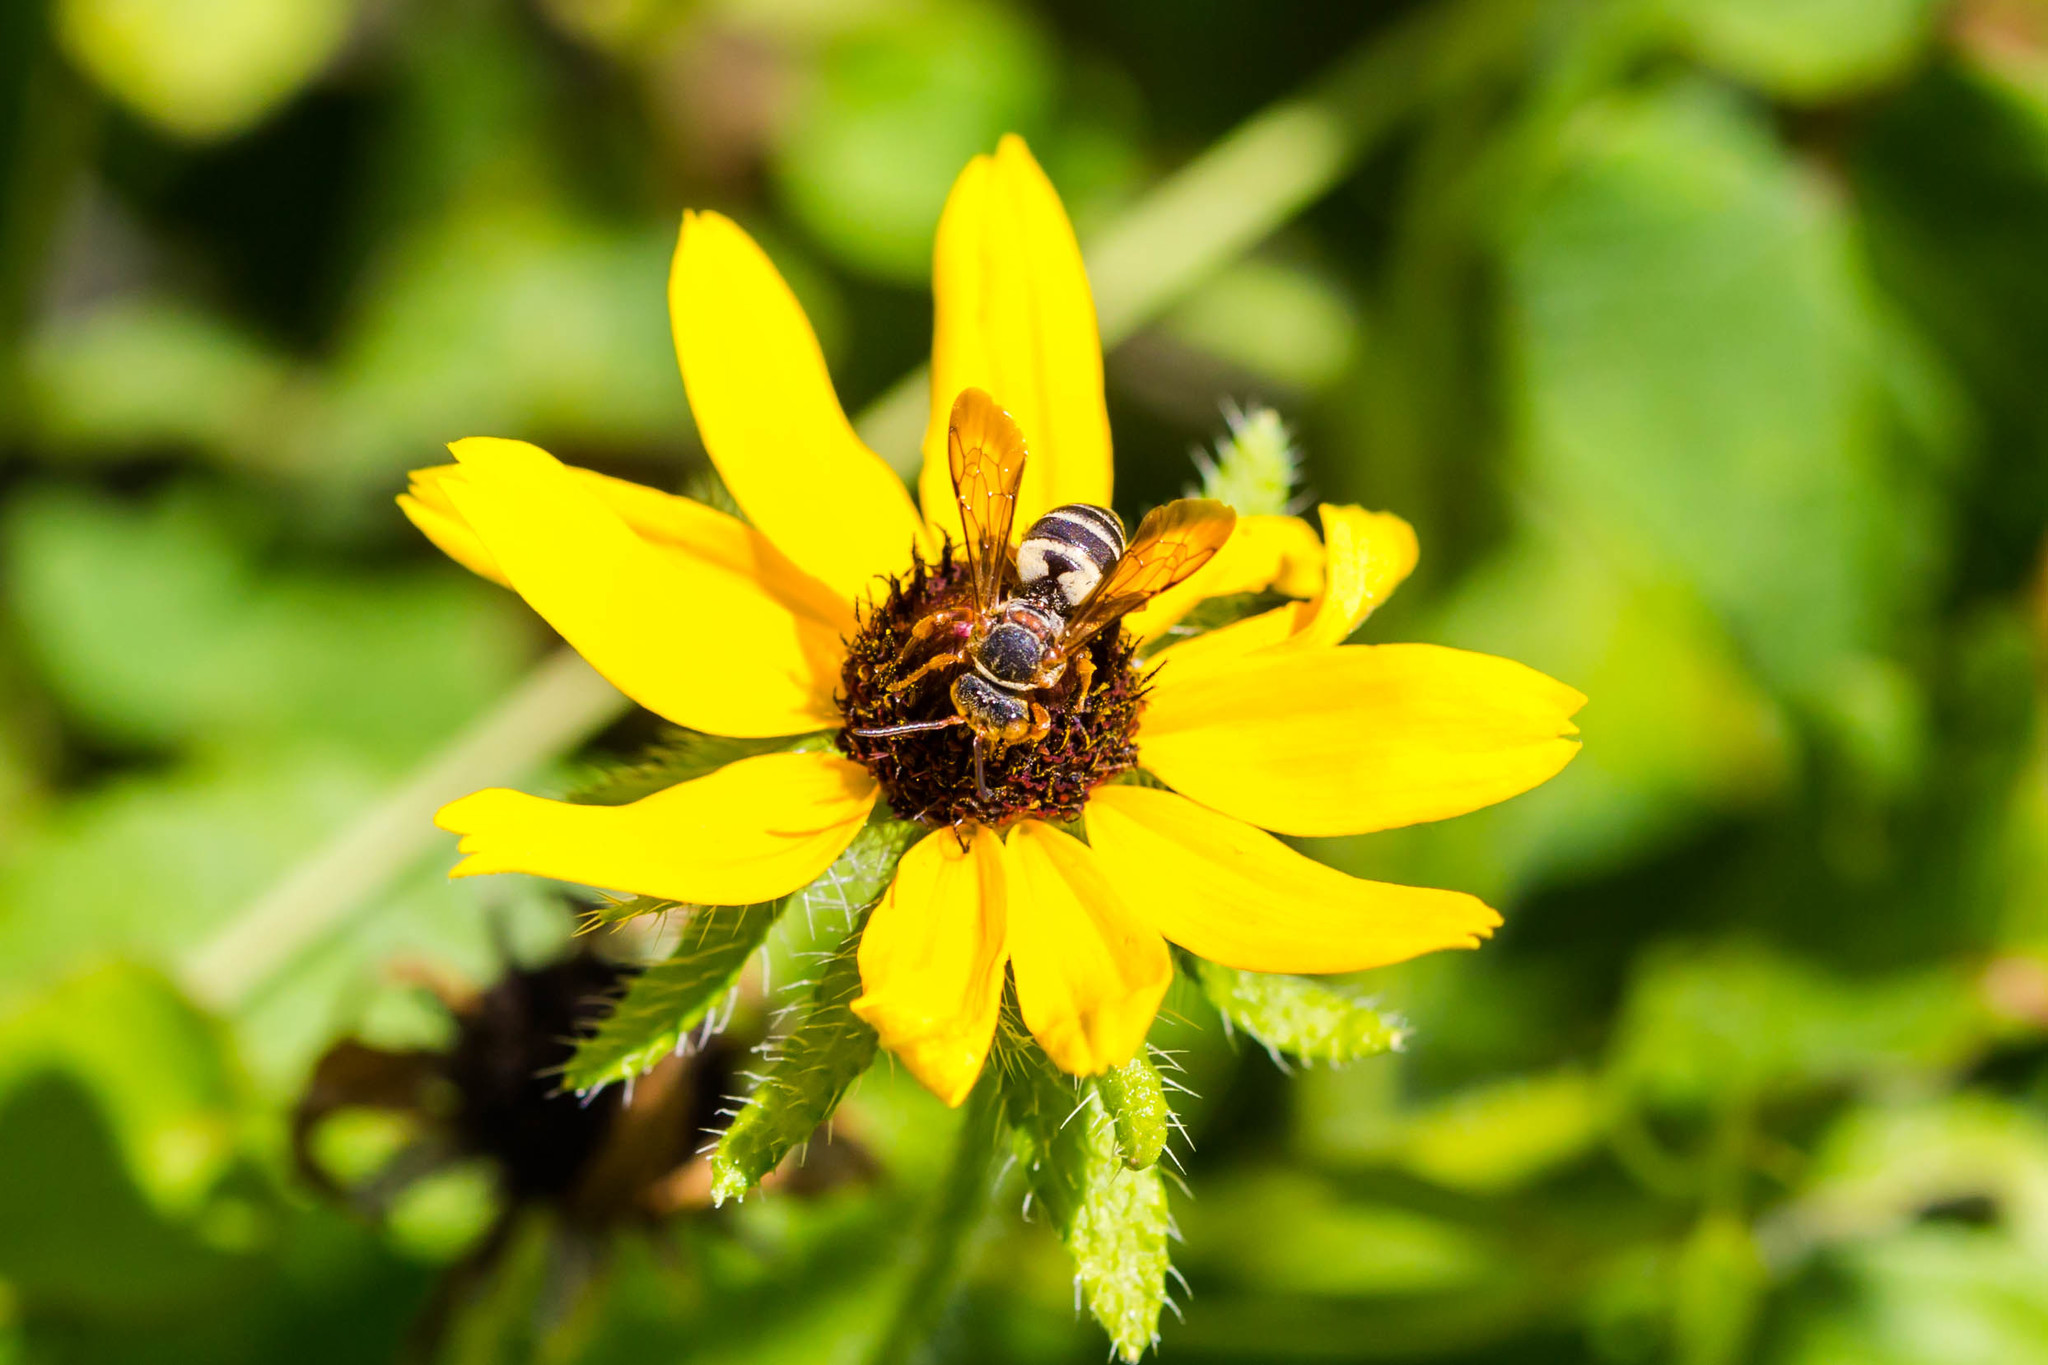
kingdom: Animalia
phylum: Arthropoda
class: Insecta
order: Hymenoptera
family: Apidae
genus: Triepeolus
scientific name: Triepeolus distinctus
